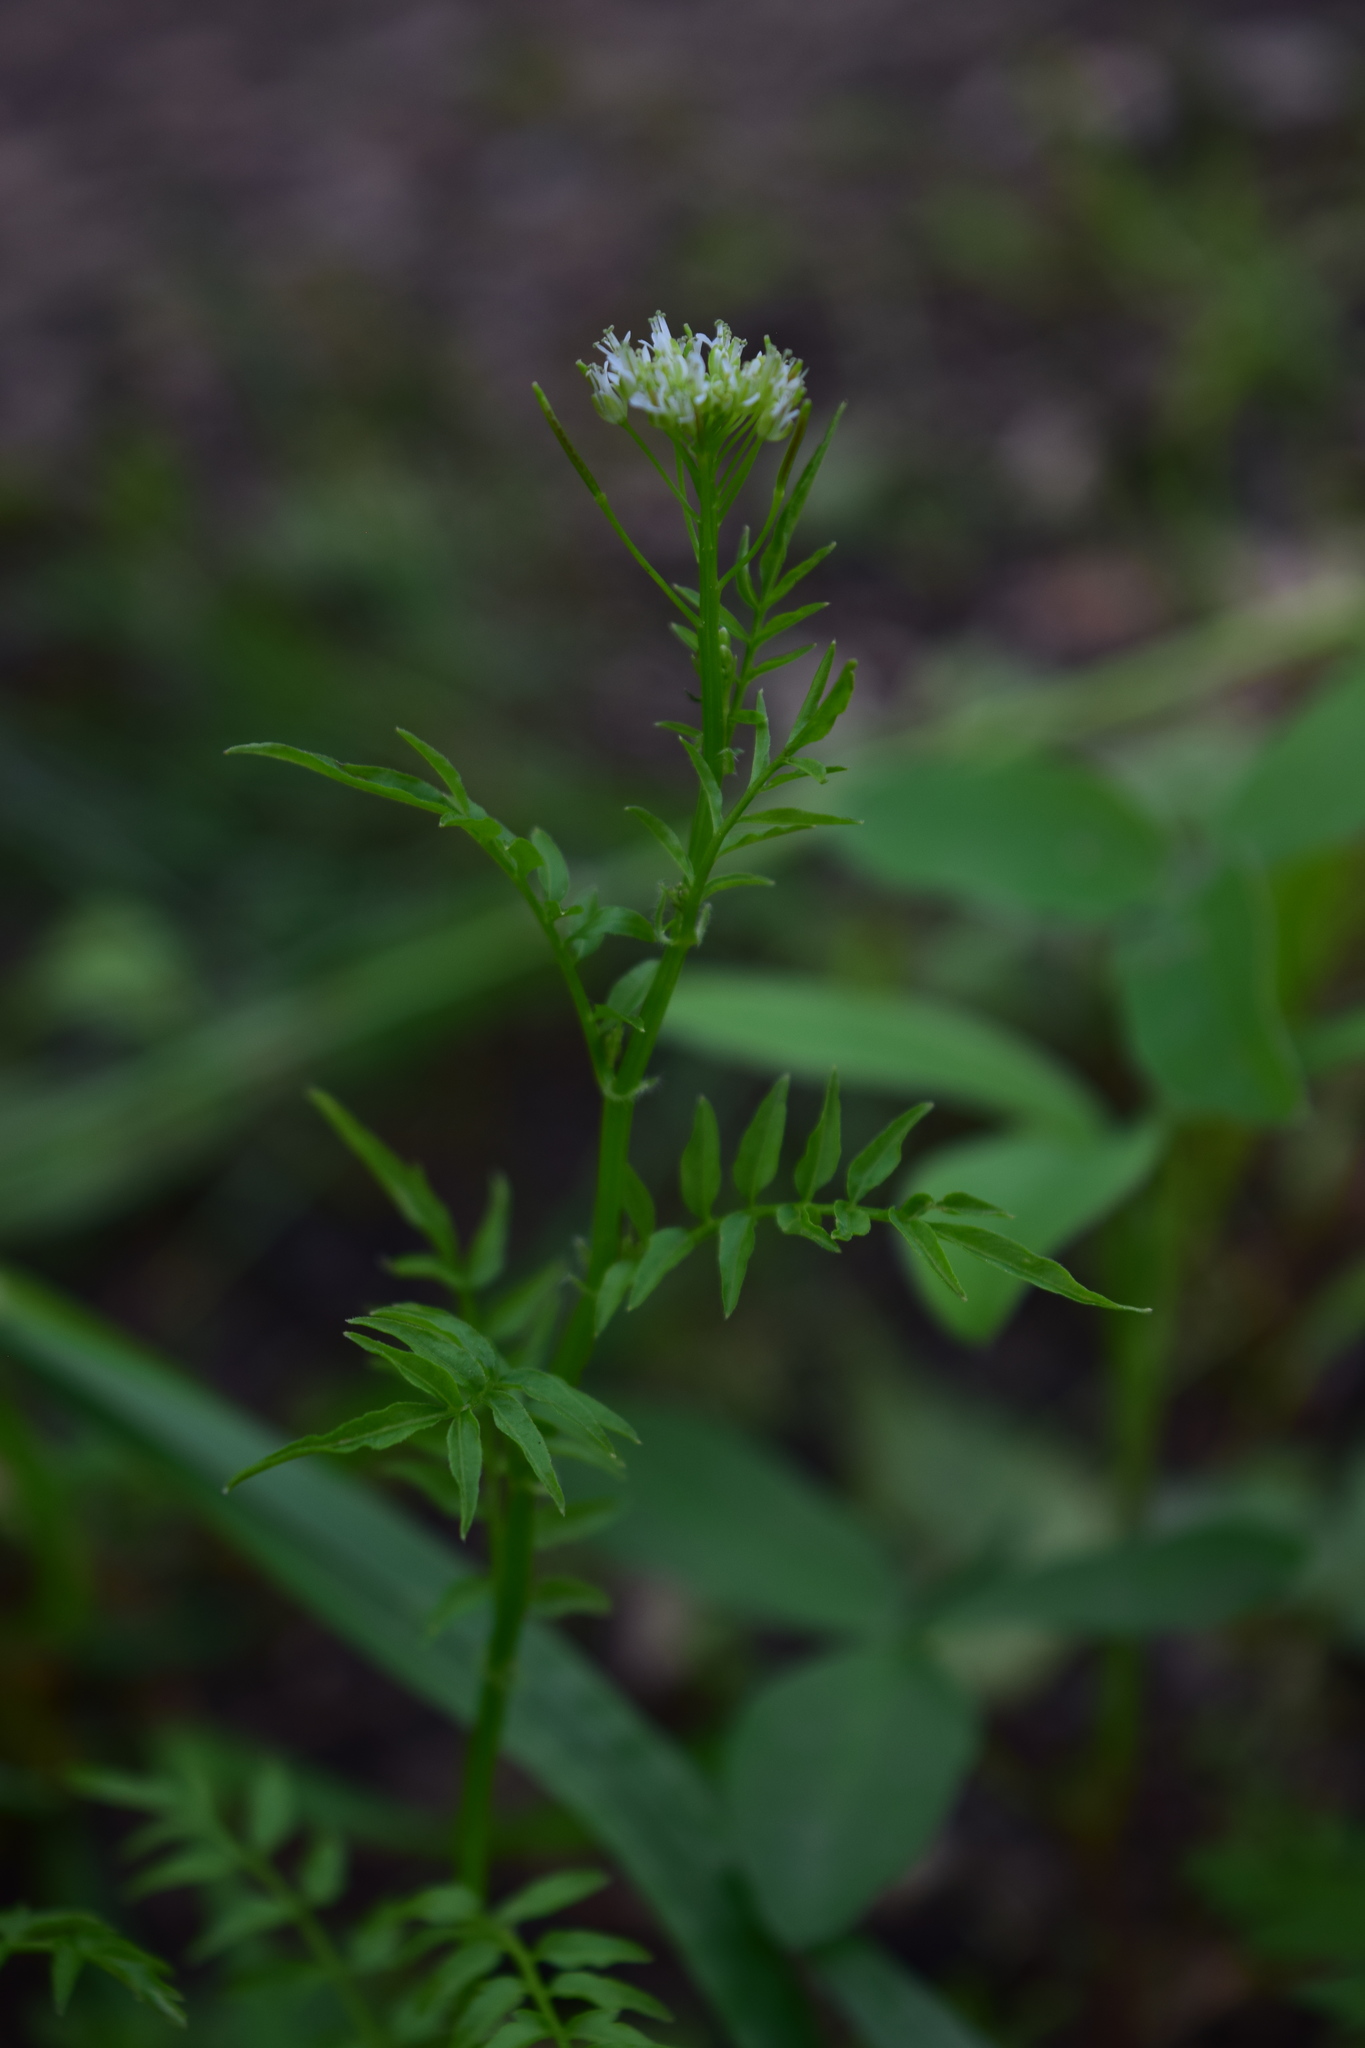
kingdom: Plantae
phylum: Tracheophyta
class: Magnoliopsida
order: Brassicales
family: Brassicaceae
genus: Cardamine
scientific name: Cardamine impatiens
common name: Narrow-leaved bitter-cress
